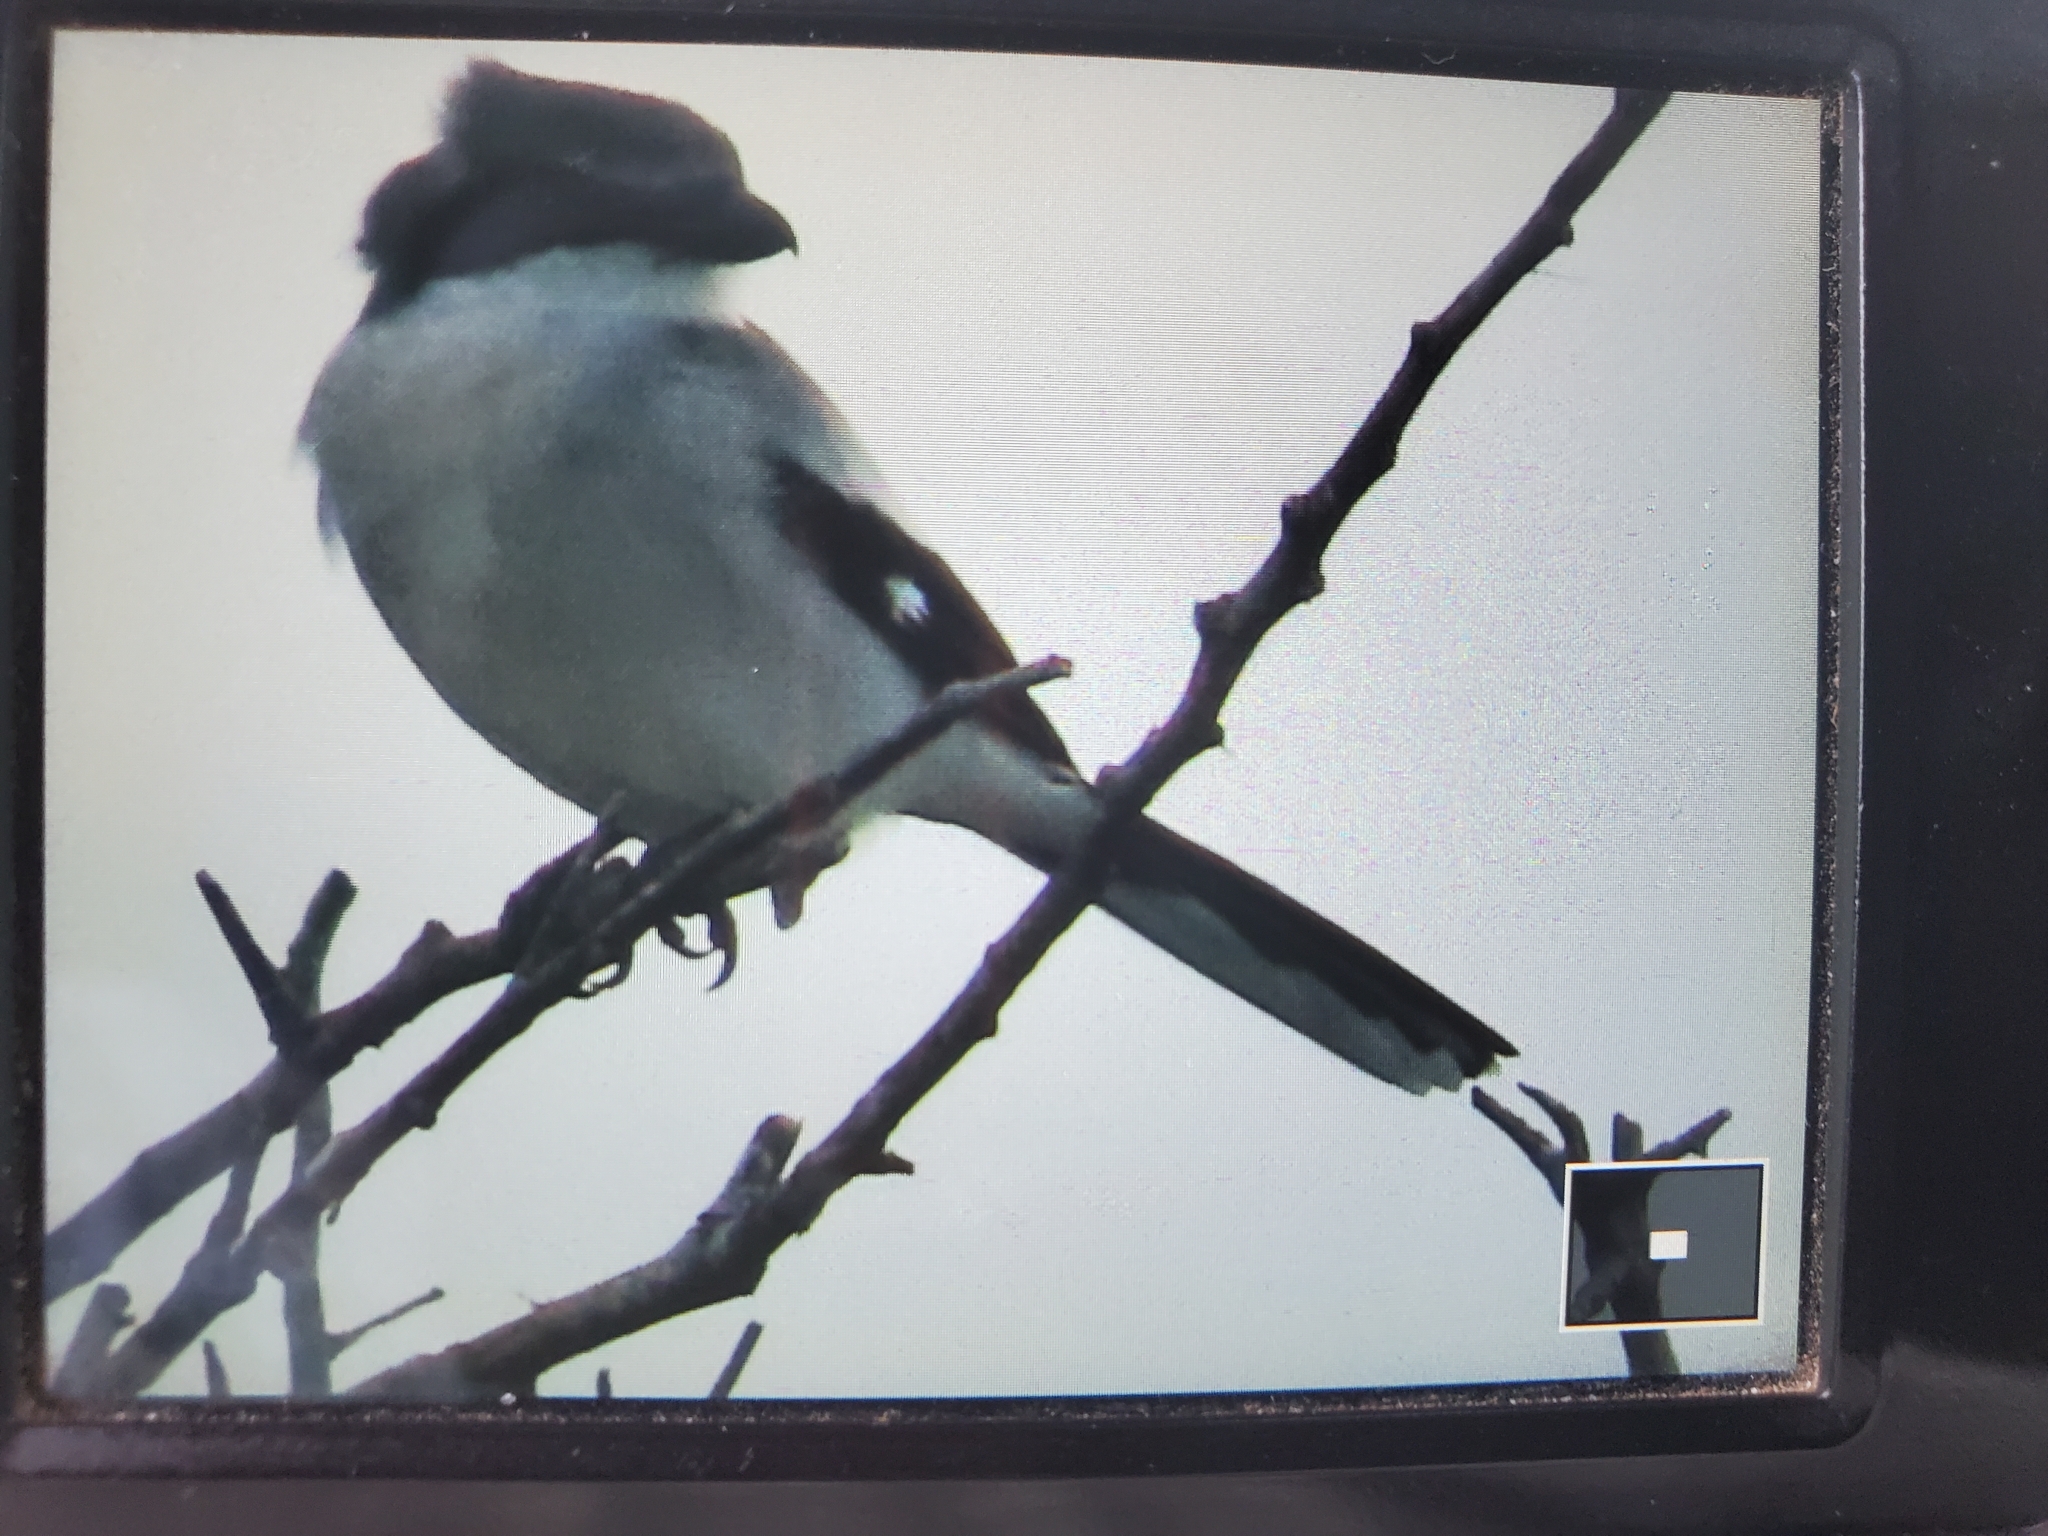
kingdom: Animalia
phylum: Chordata
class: Aves
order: Passeriformes
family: Laniidae
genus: Lanius
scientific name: Lanius ludovicianus
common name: Loggerhead shrike
